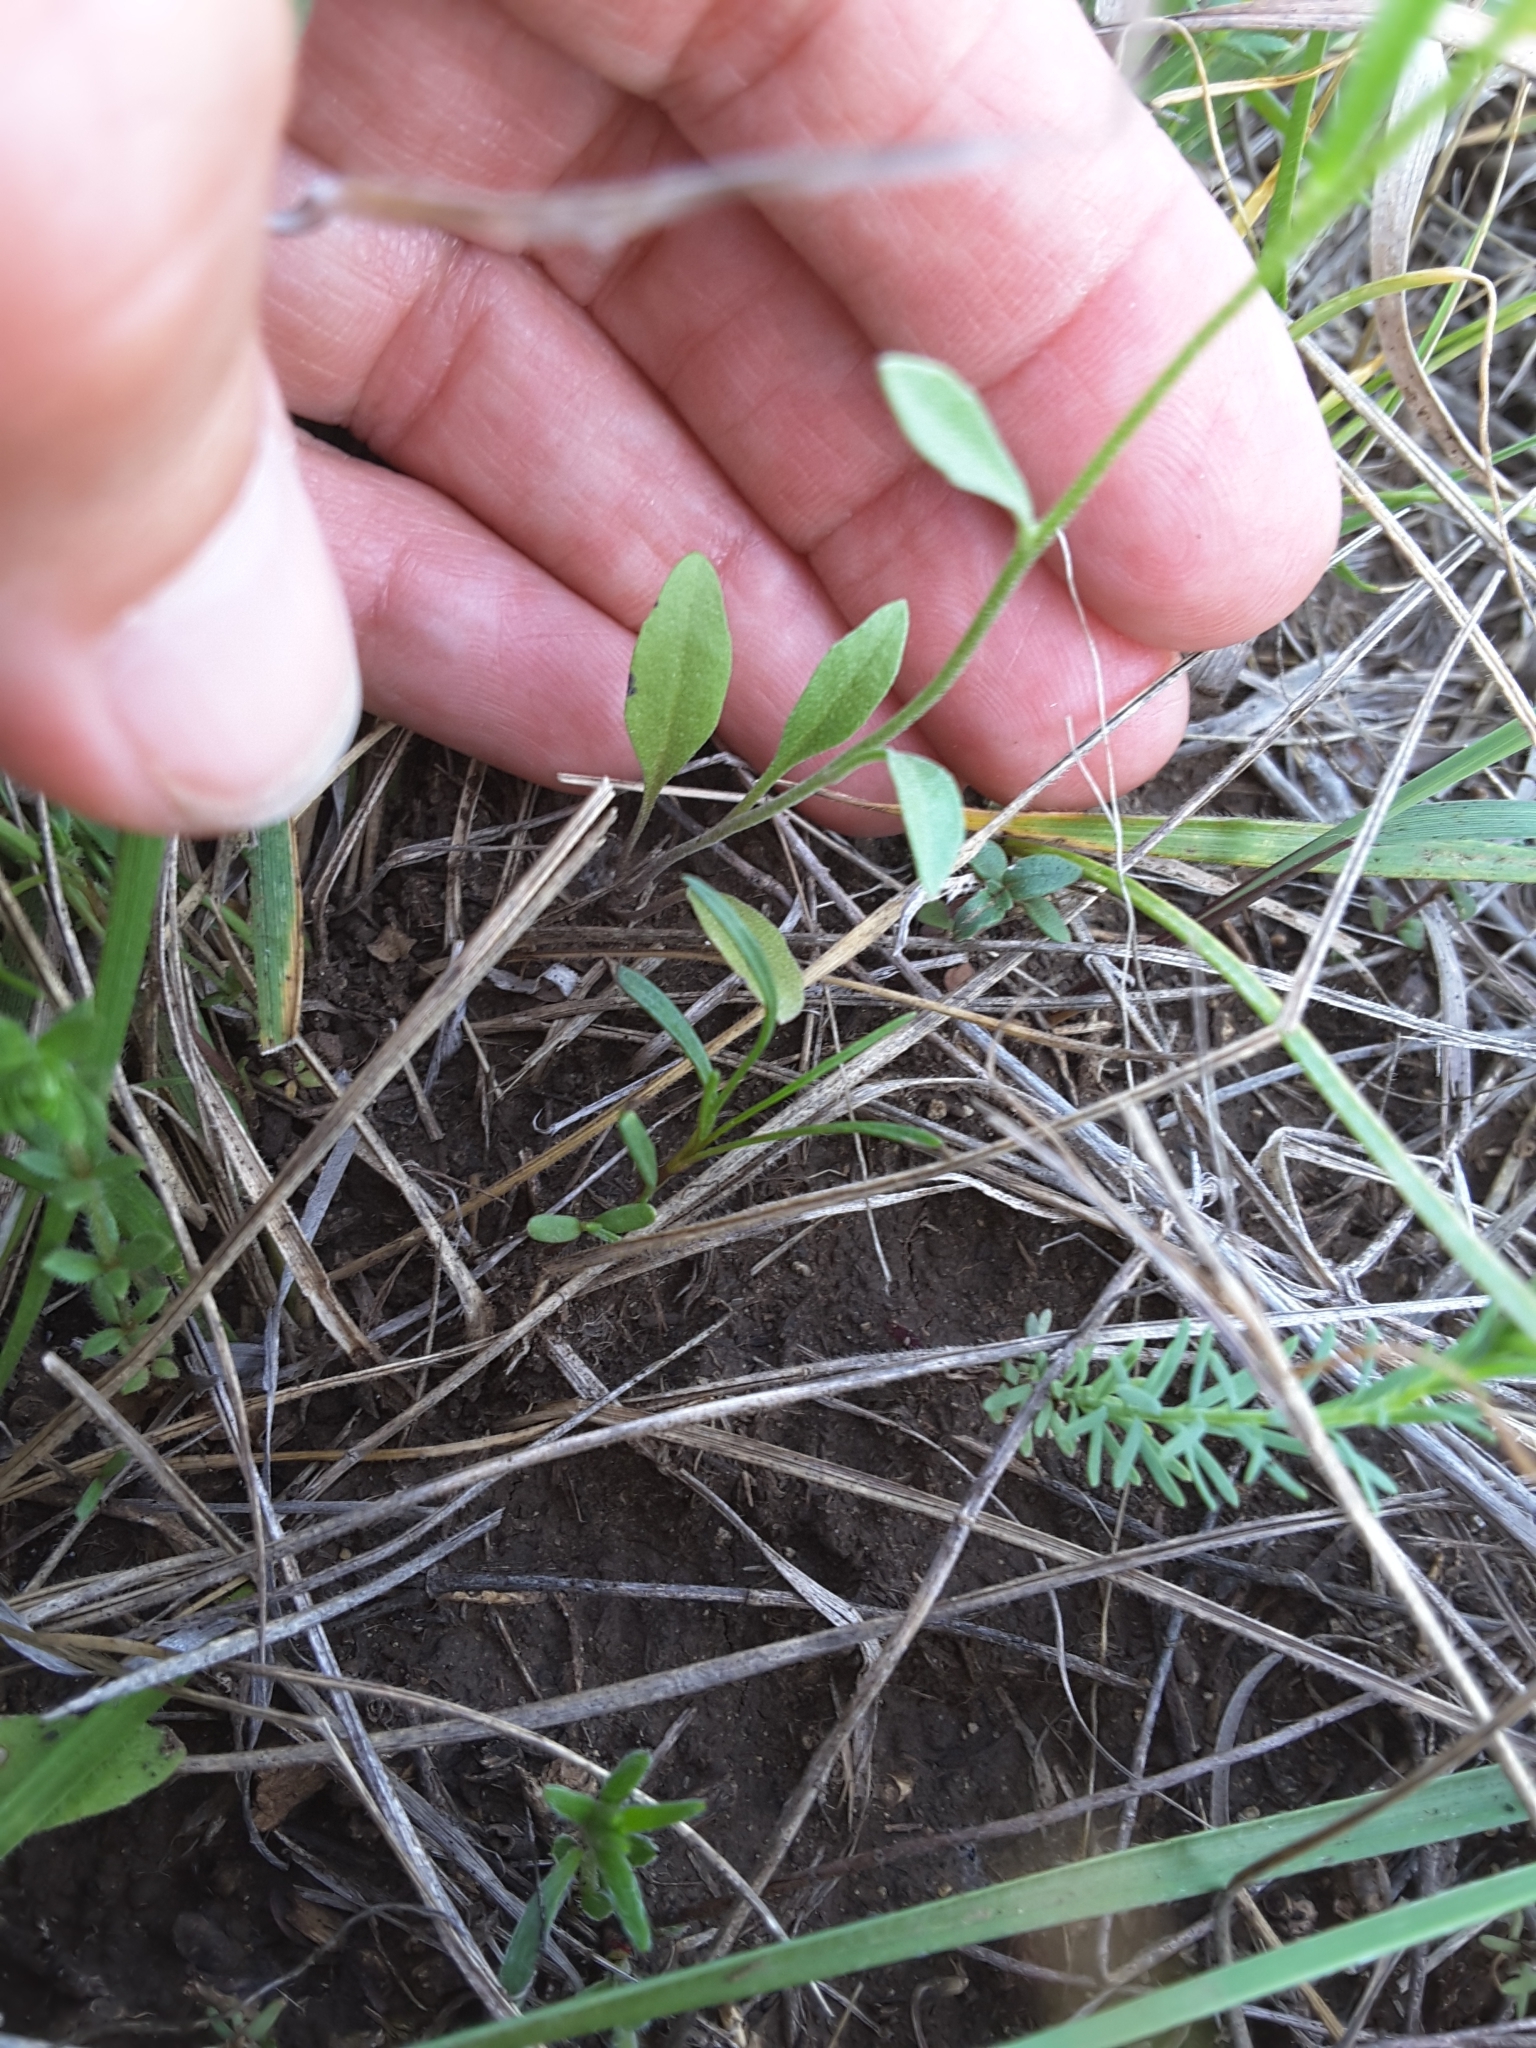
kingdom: Plantae
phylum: Tracheophyta
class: Magnoliopsida
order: Brassicales
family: Brassicaceae
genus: Physaria
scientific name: Physaria gracilis
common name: Spreading bladderpod
